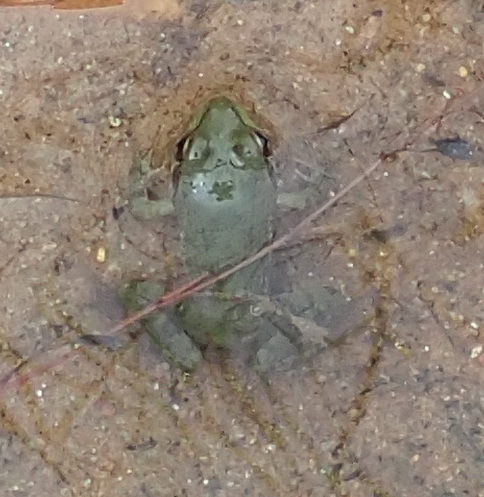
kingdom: Animalia
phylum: Chordata
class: Amphibia
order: Anura
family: Pyxicephalidae
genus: Amietia
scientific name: Amietia fuscigula
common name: Cape rana
